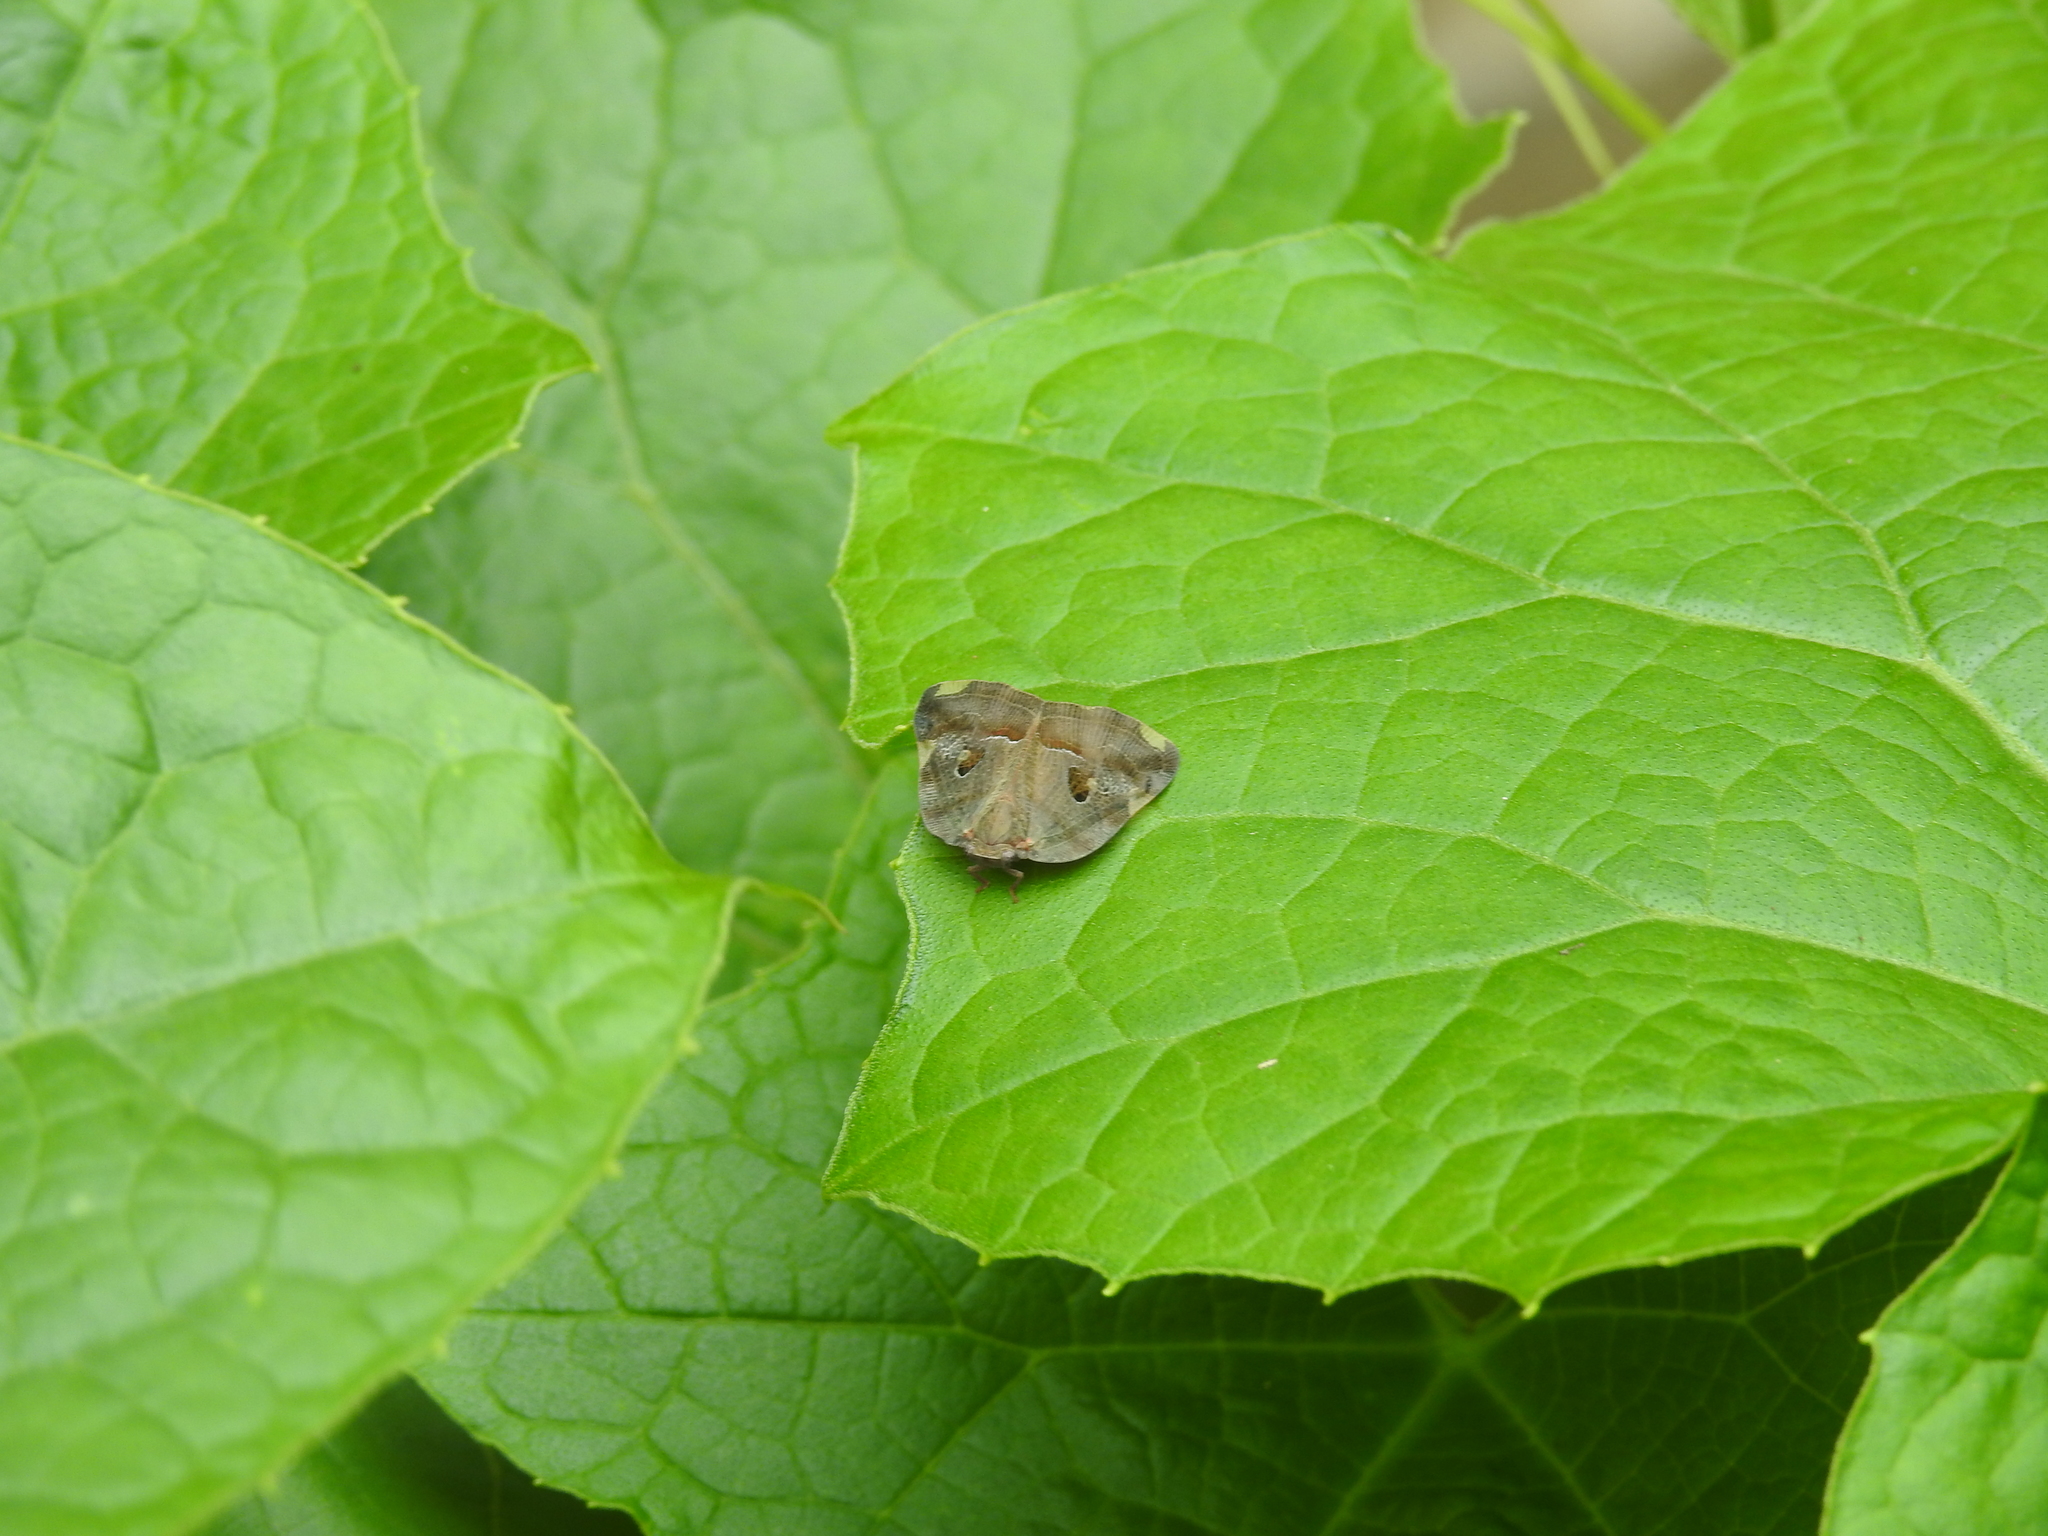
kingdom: Animalia
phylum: Arthropoda
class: Insecta
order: Hemiptera
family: Ricaniidae
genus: Ricania
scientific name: Ricania guttata
